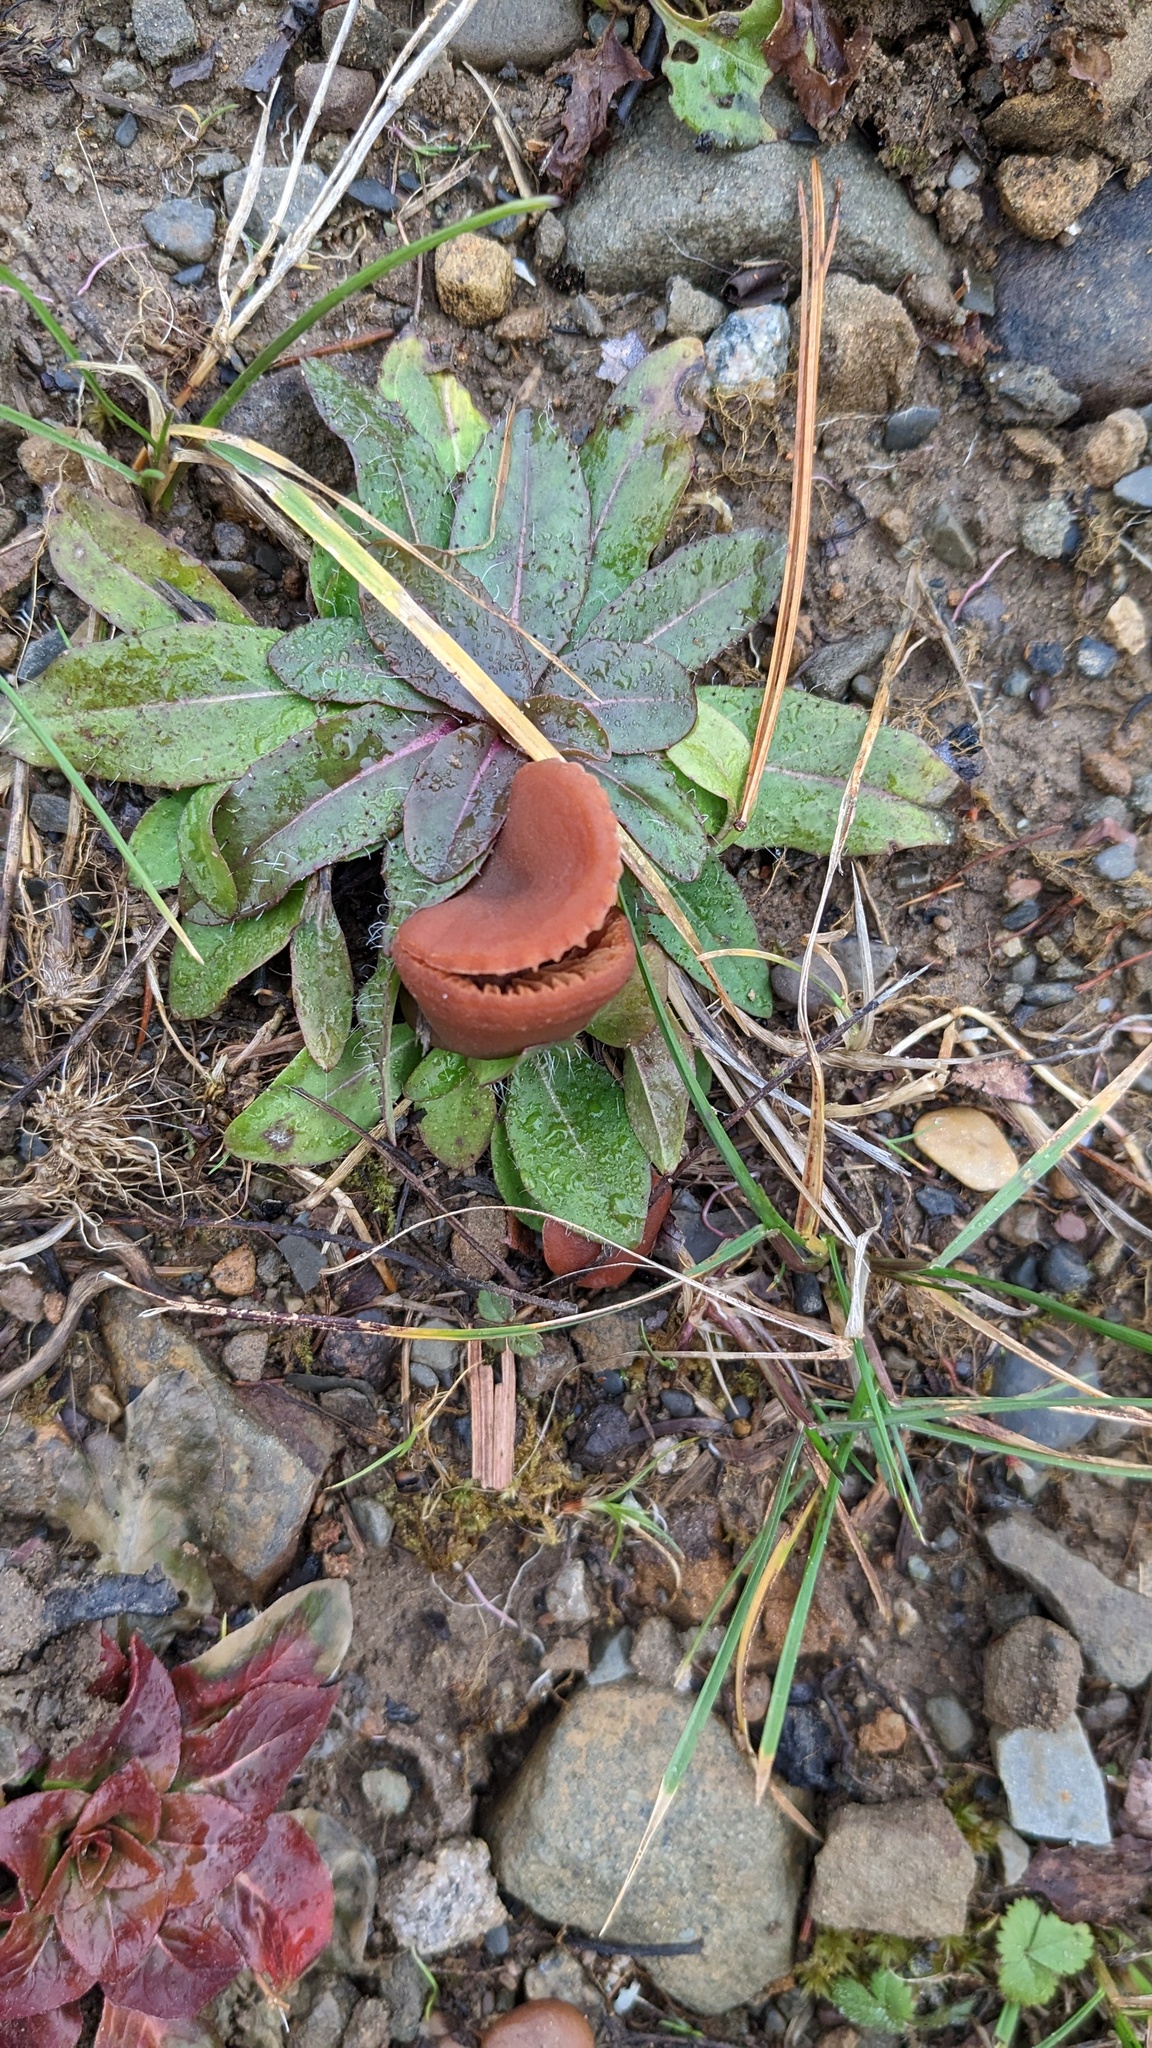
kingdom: Plantae
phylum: Tracheophyta
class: Magnoliopsida
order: Asterales
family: Asteraceae
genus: Pilosella
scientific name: Pilosella officinarum
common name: Mouse-ear hawkweed
